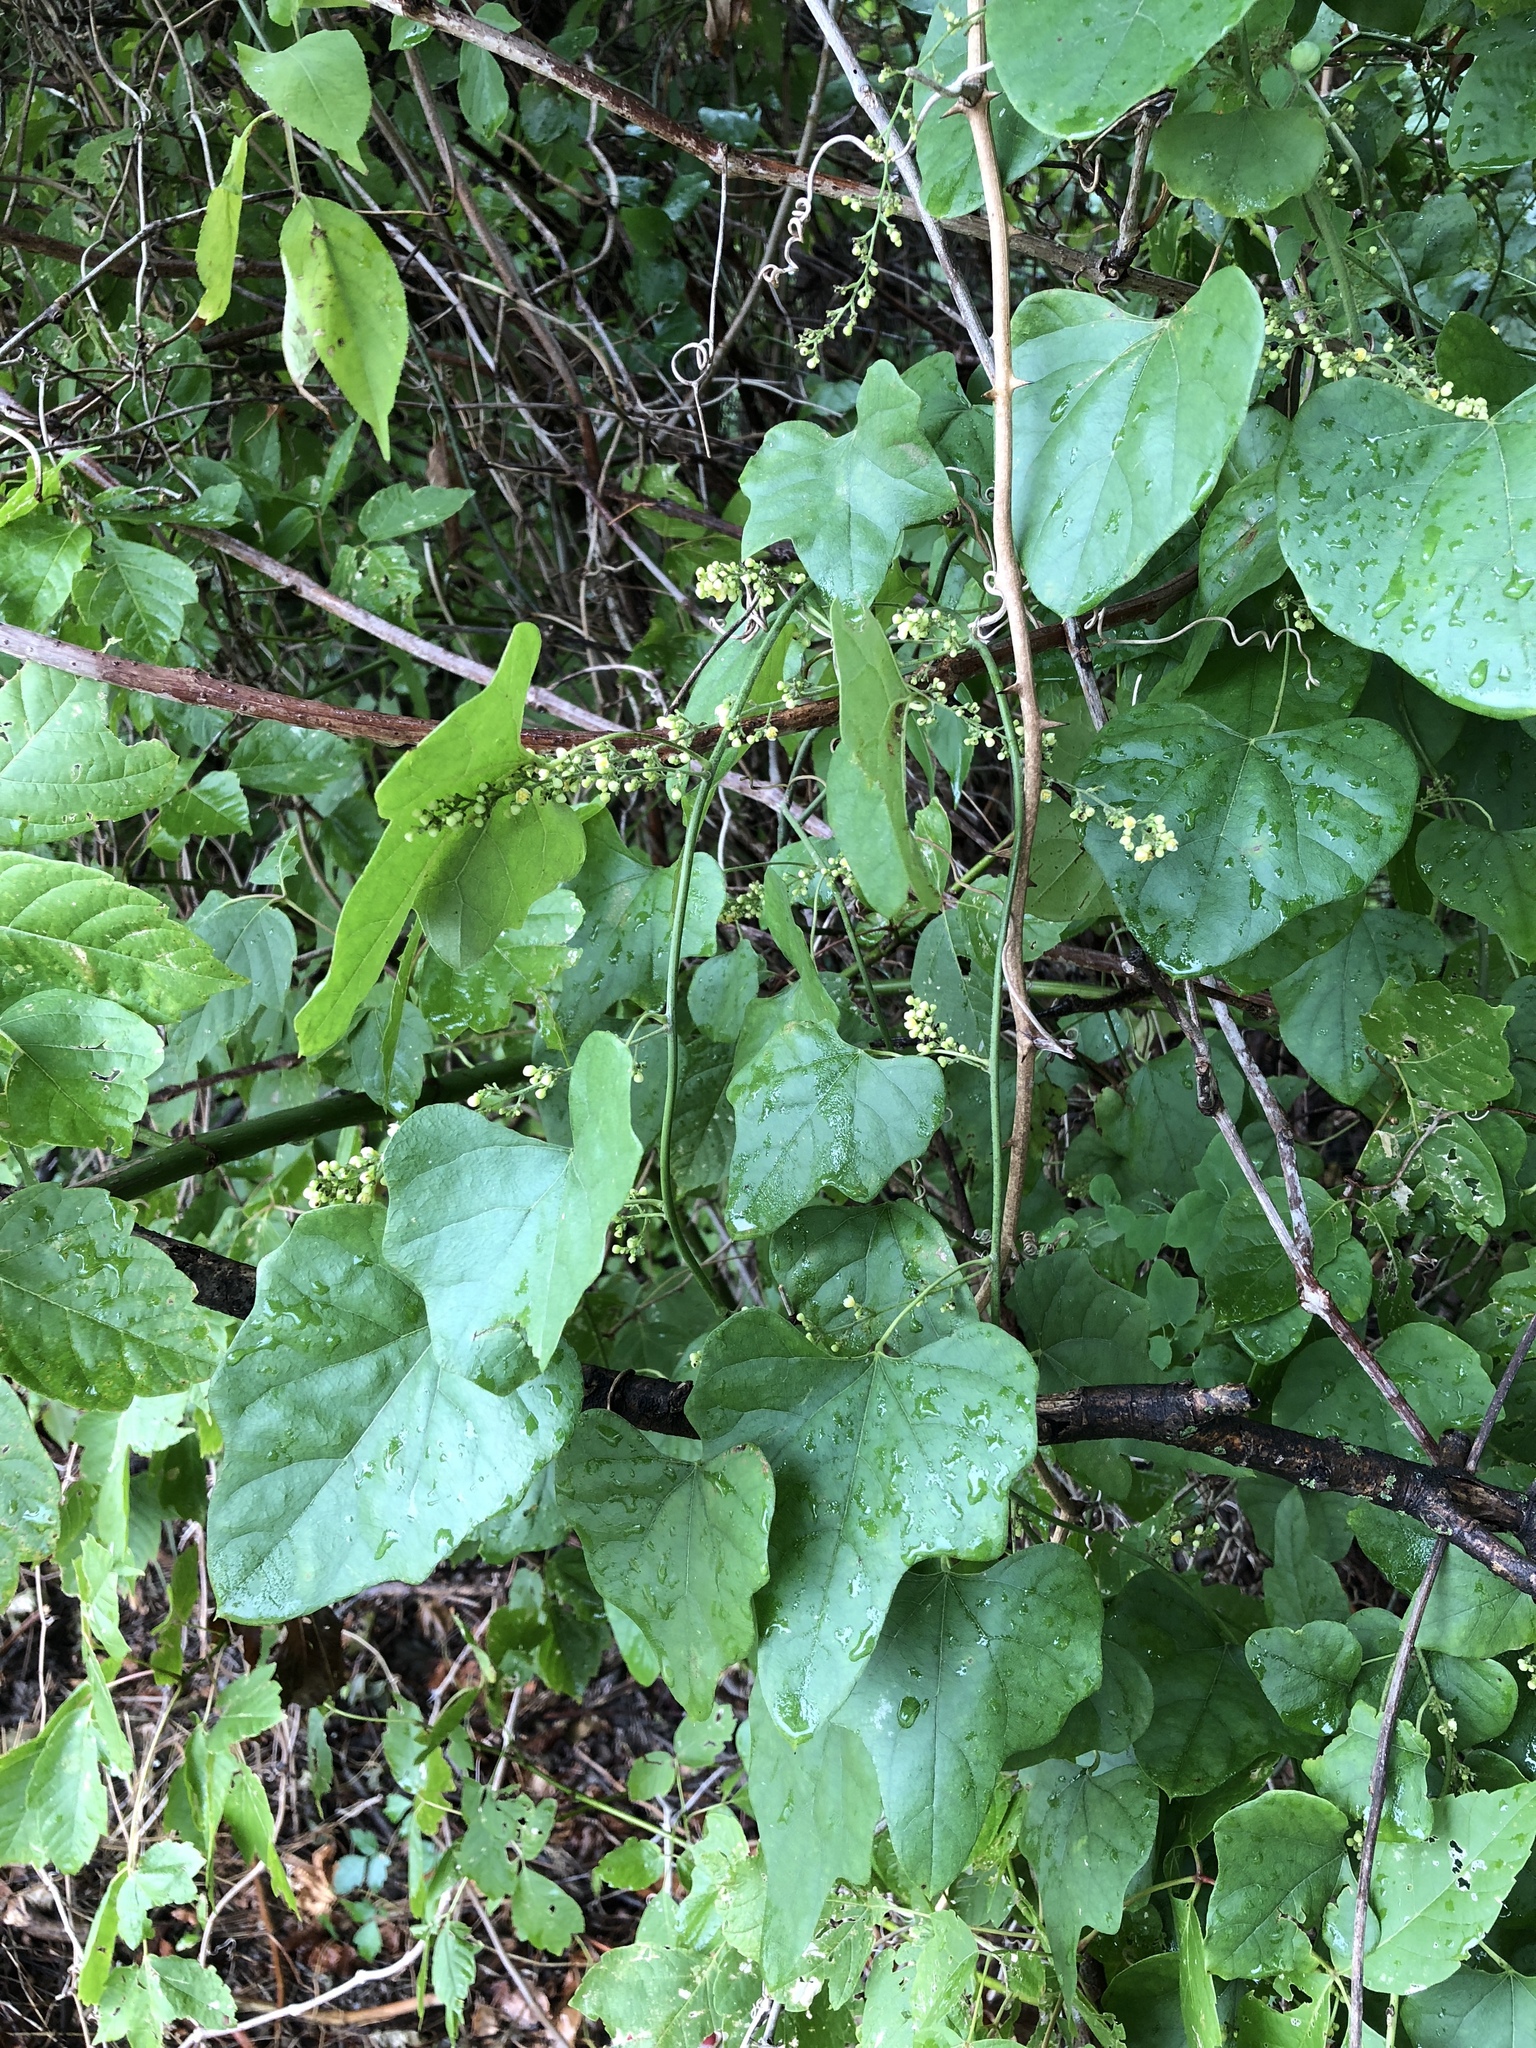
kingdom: Plantae
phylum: Tracheophyta
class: Magnoliopsida
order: Ranunculales
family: Menispermaceae
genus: Cocculus
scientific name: Cocculus carolinus
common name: Carolina moonseed
